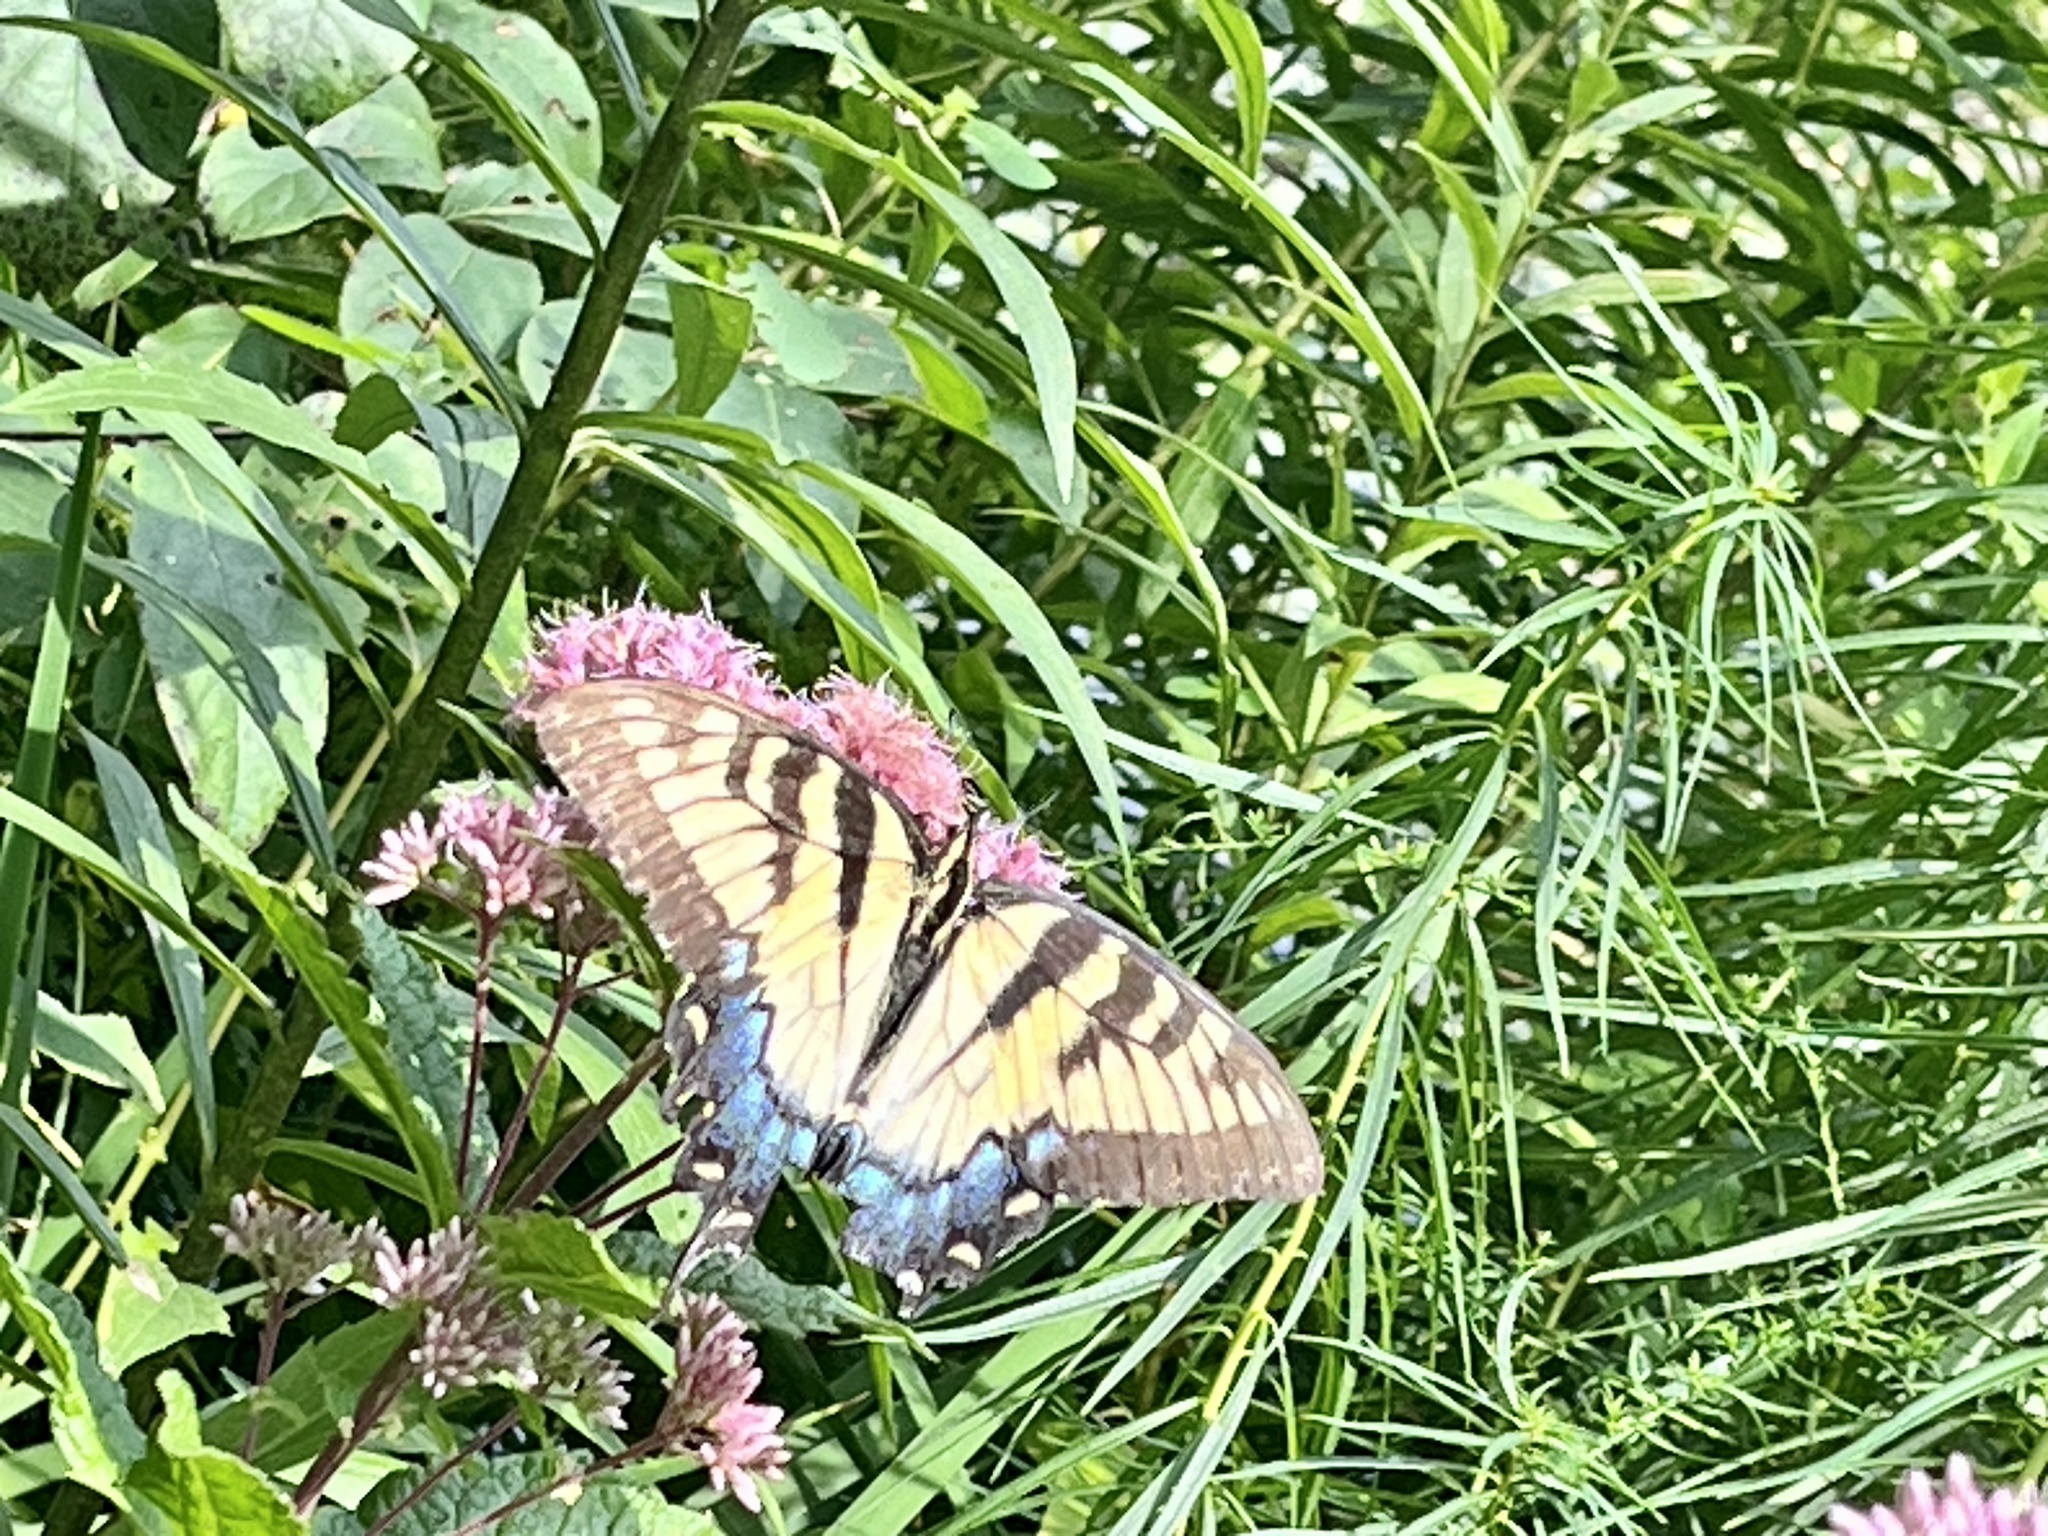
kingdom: Animalia
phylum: Arthropoda
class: Insecta
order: Lepidoptera
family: Papilionidae
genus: Papilio
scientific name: Papilio glaucus
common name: Tiger swallowtail
